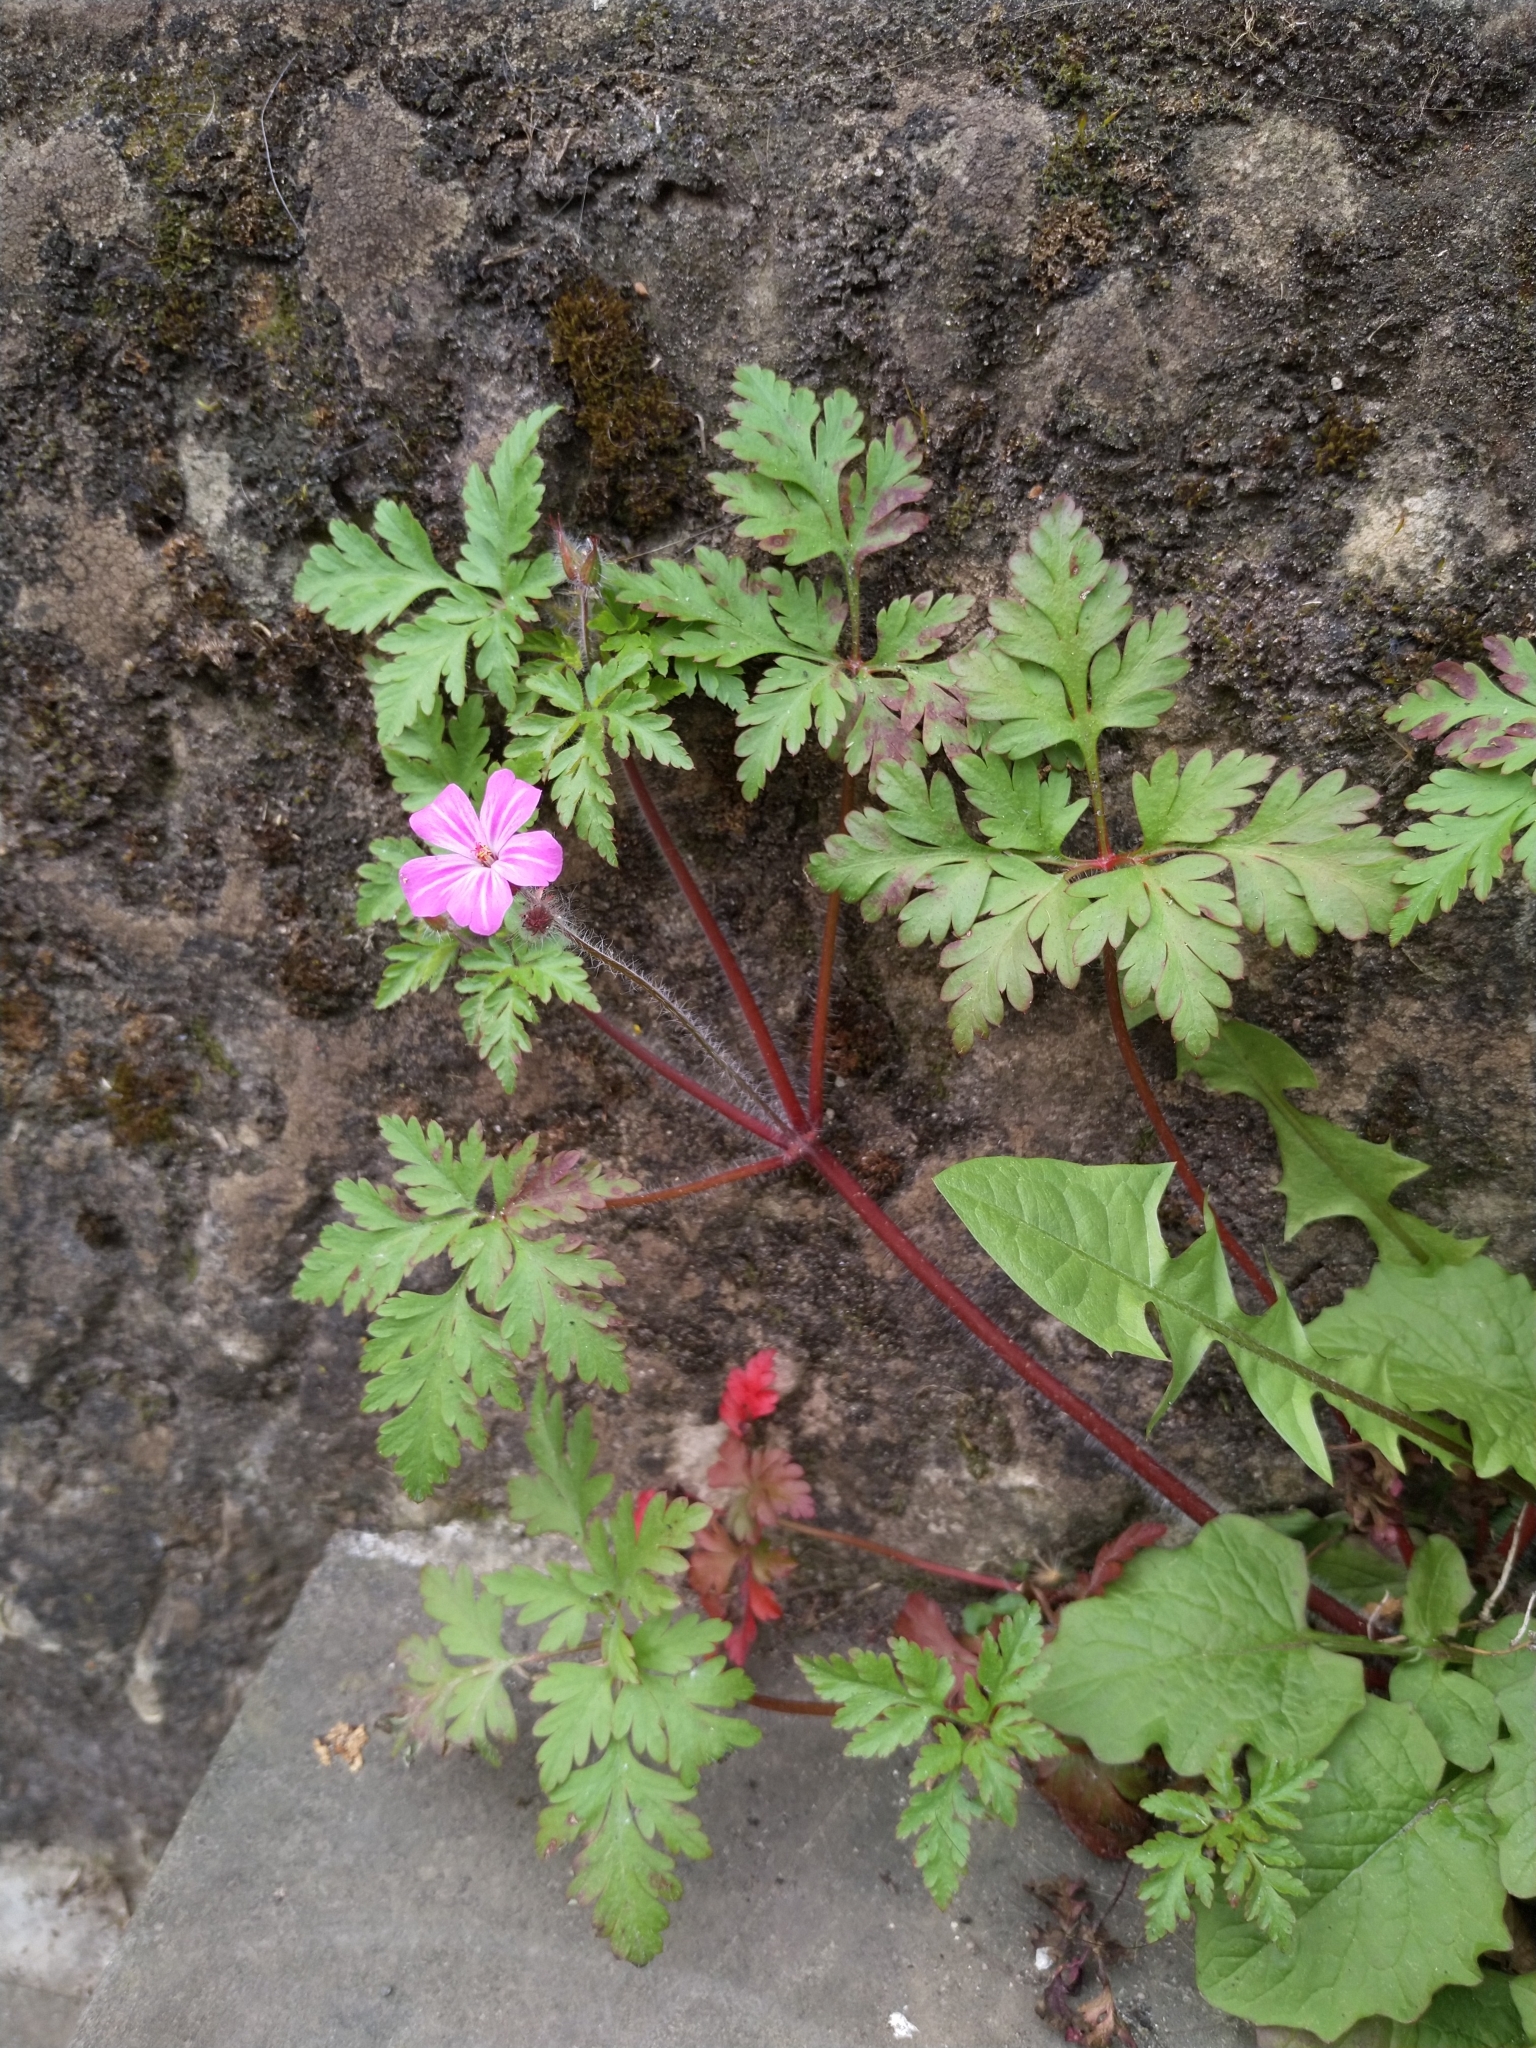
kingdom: Plantae
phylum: Tracheophyta
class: Magnoliopsida
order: Geraniales
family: Geraniaceae
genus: Geranium
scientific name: Geranium robertianum
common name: Herb-robert
